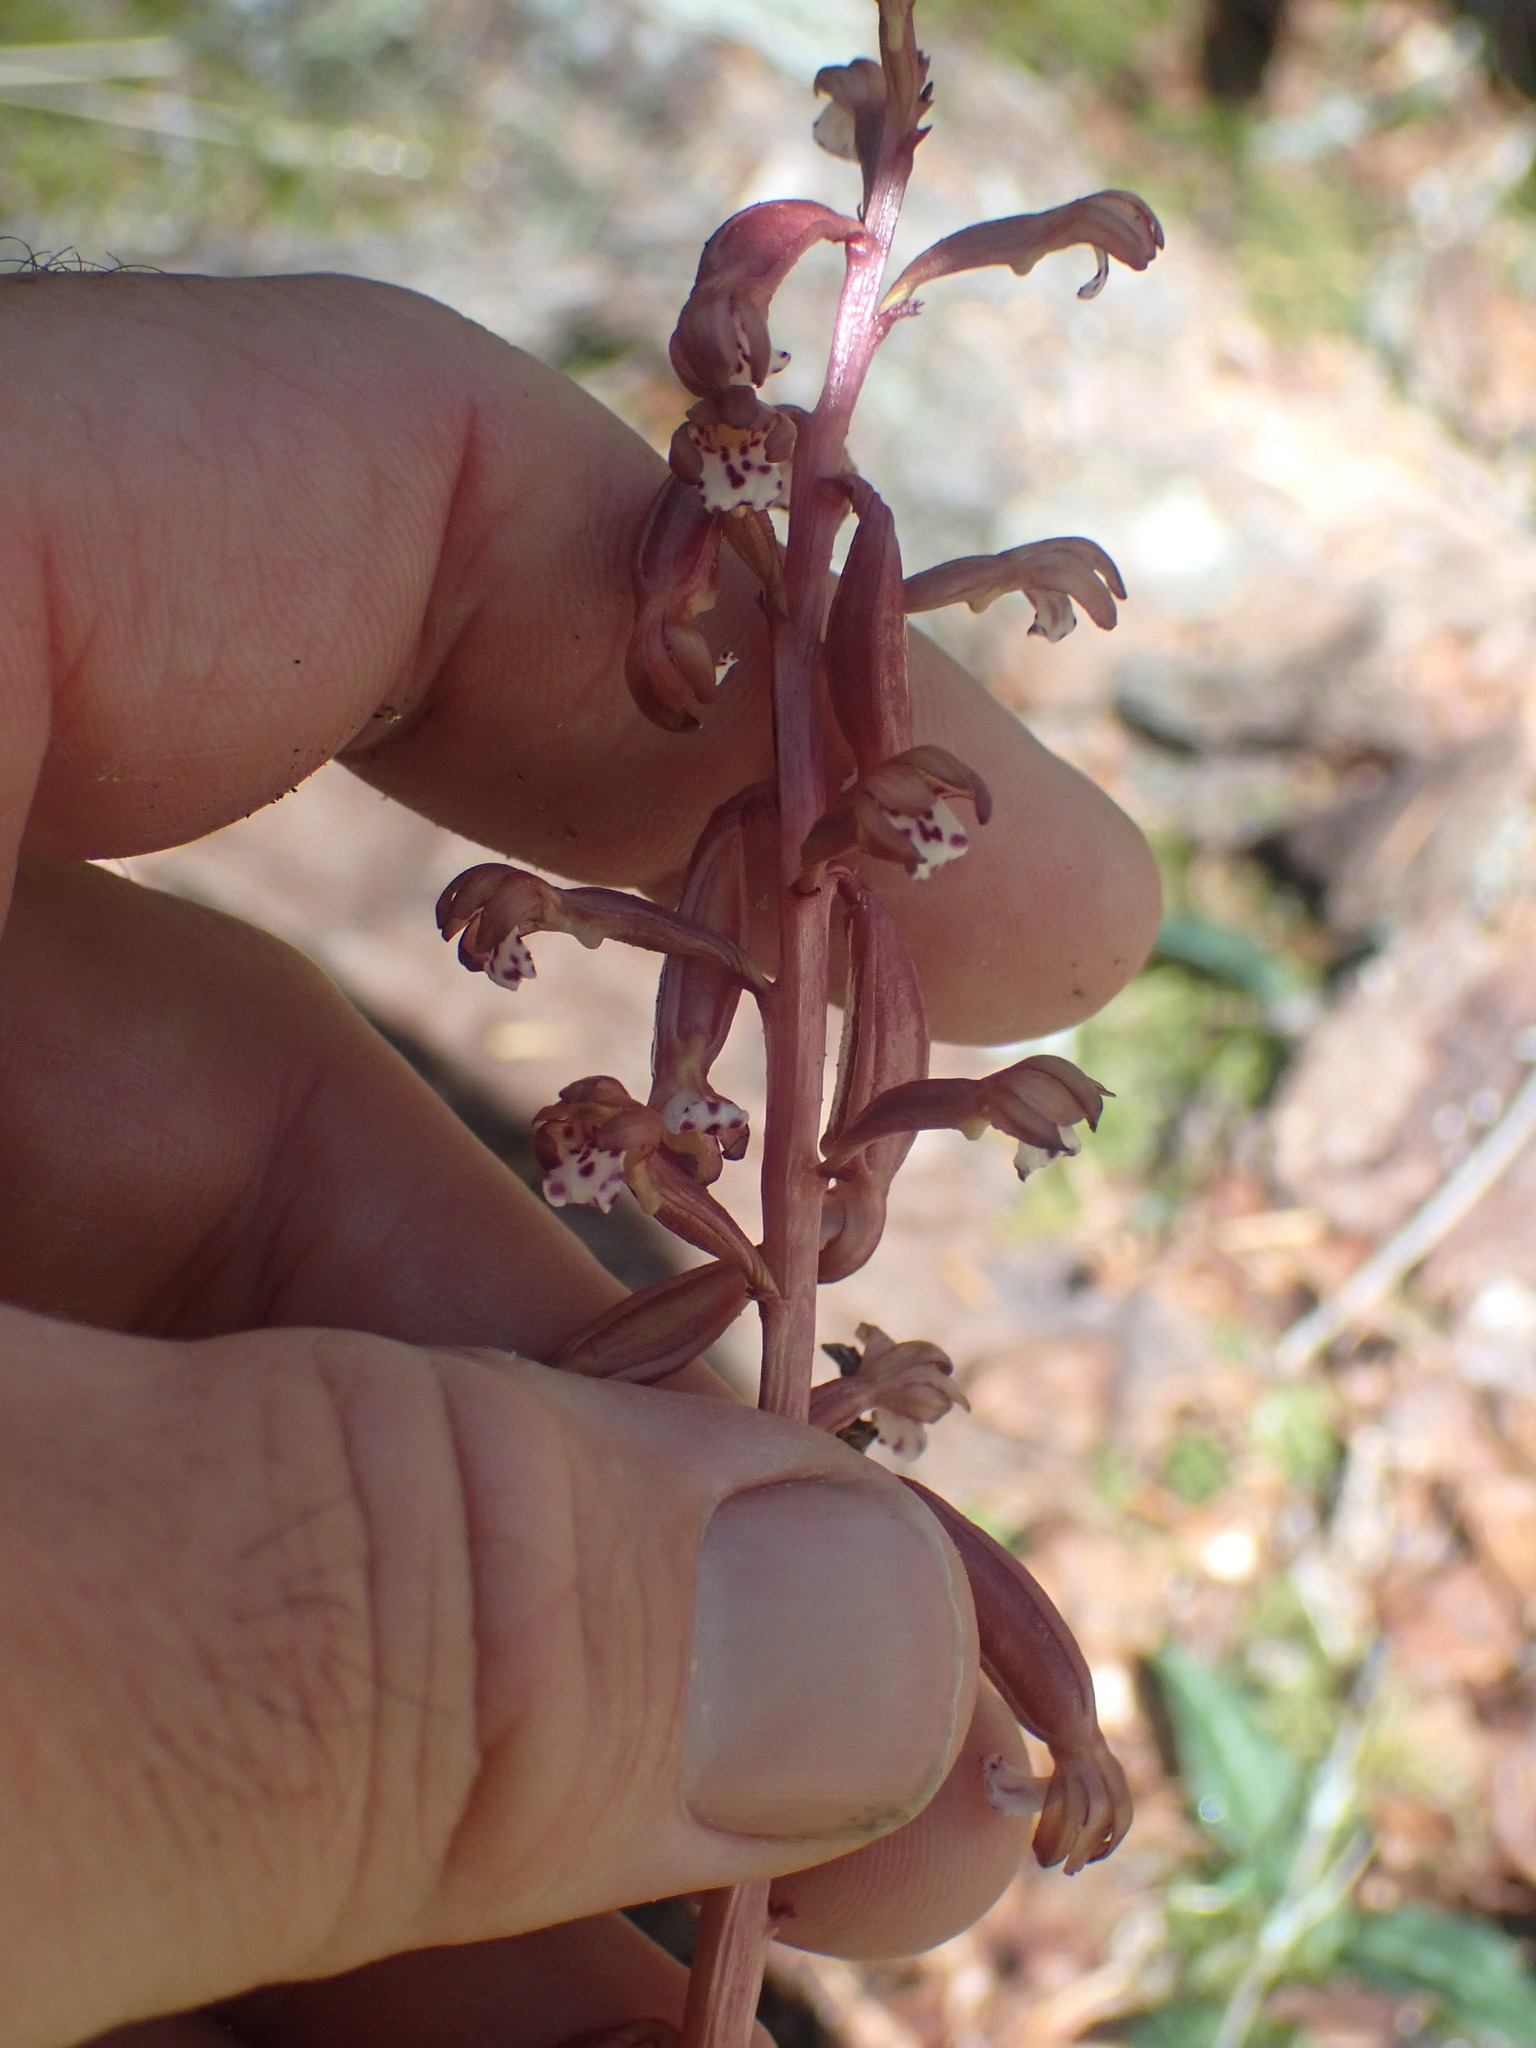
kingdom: Plantae
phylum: Tracheophyta
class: Liliopsida
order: Asparagales
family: Orchidaceae
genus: Corallorhiza
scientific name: Corallorhiza maculata
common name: Spotted coralroot
